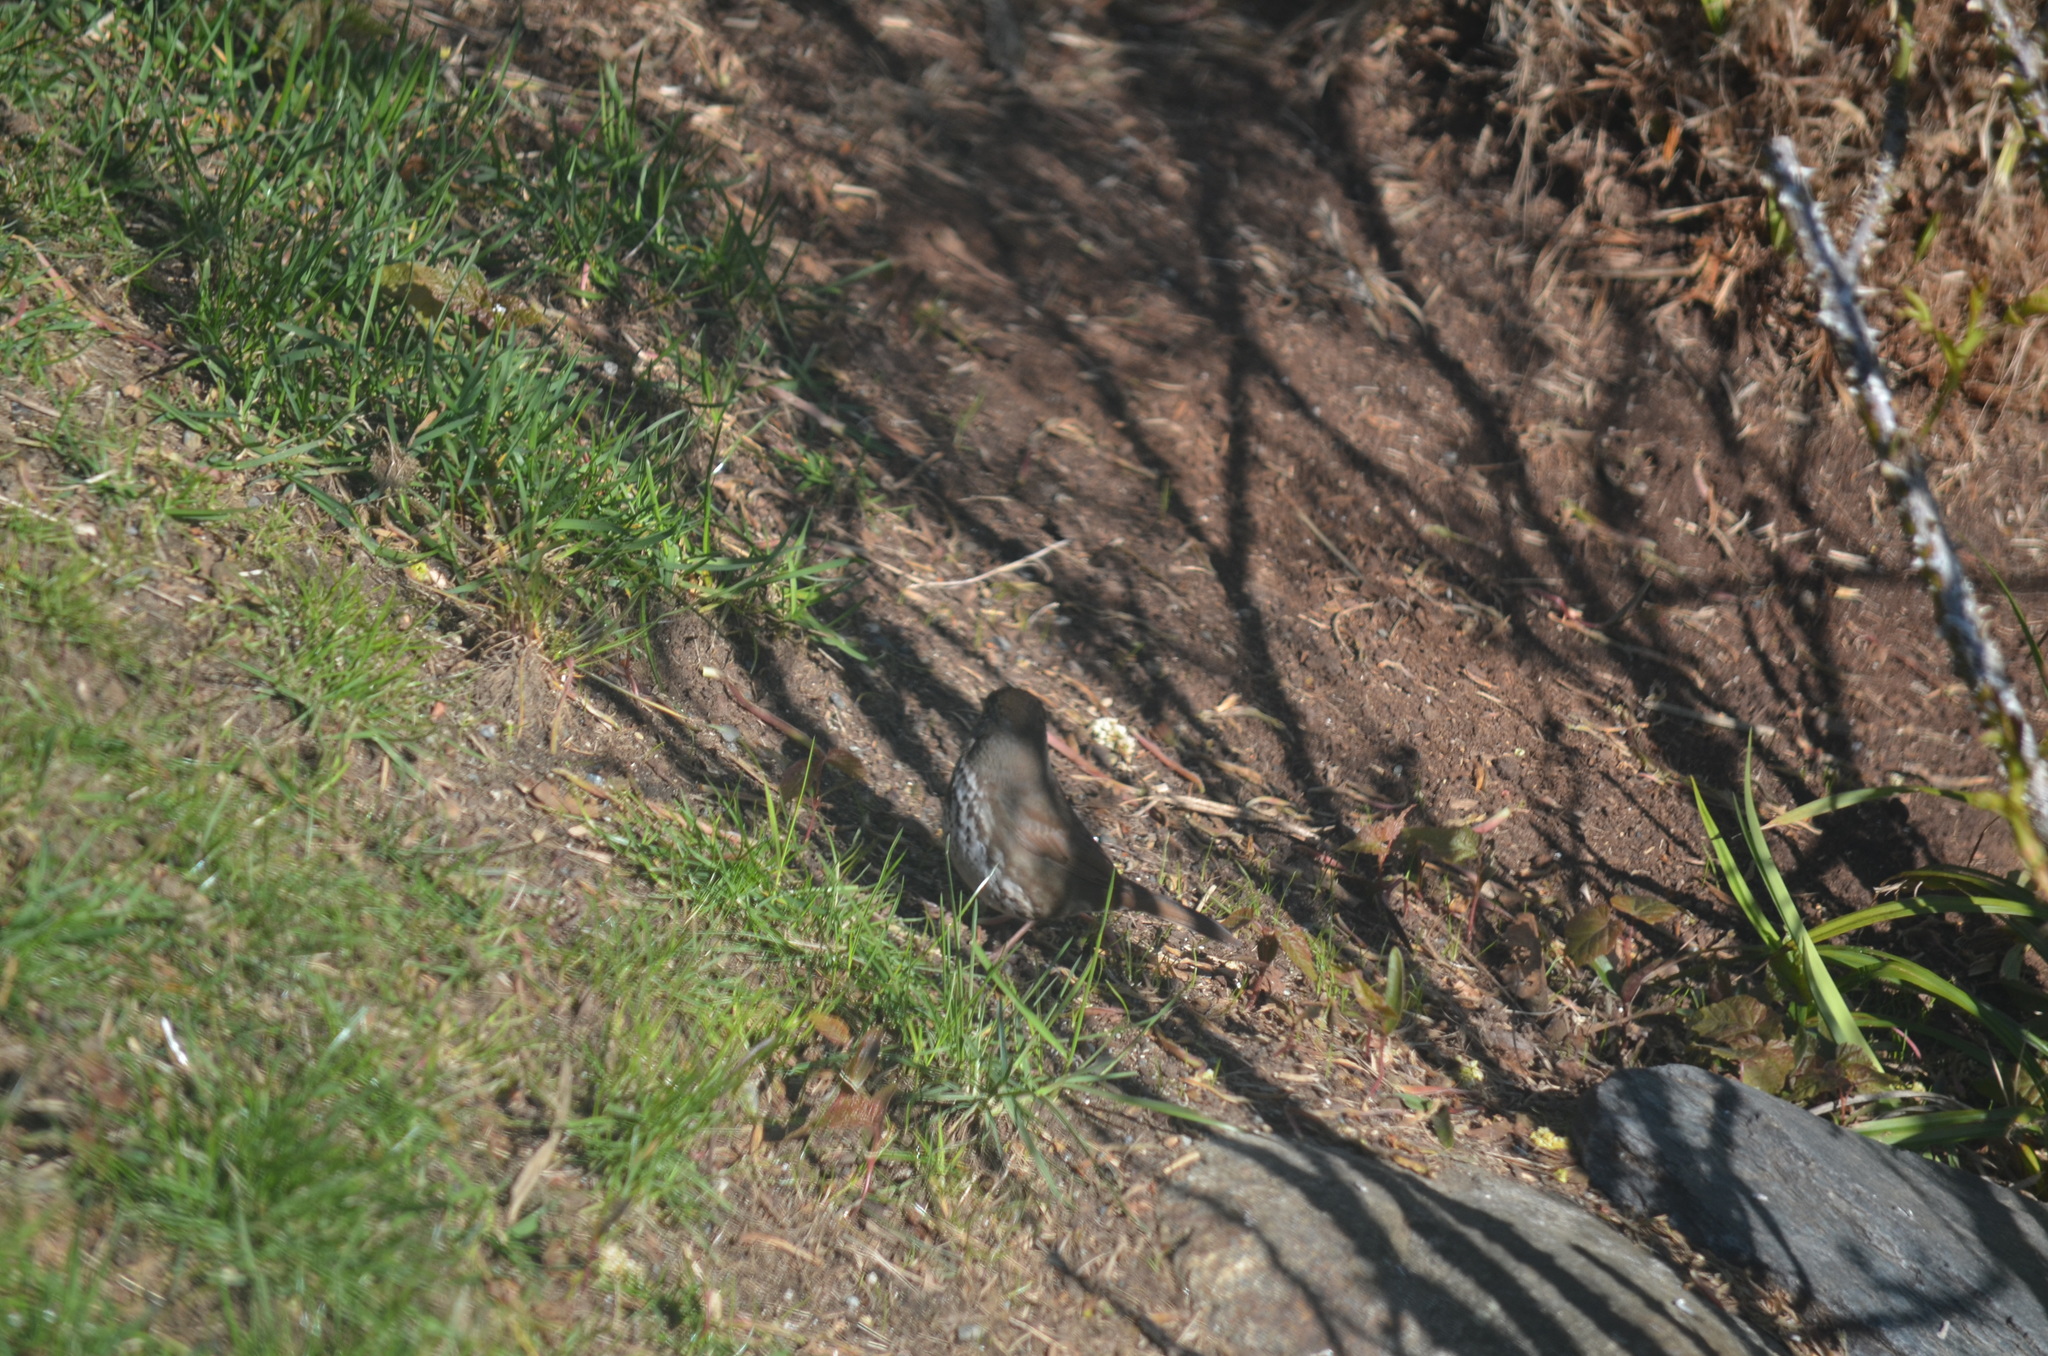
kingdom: Animalia
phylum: Chordata
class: Aves
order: Passeriformes
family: Passerellidae
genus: Passerella
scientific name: Passerella iliaca
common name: Fox sparrow
